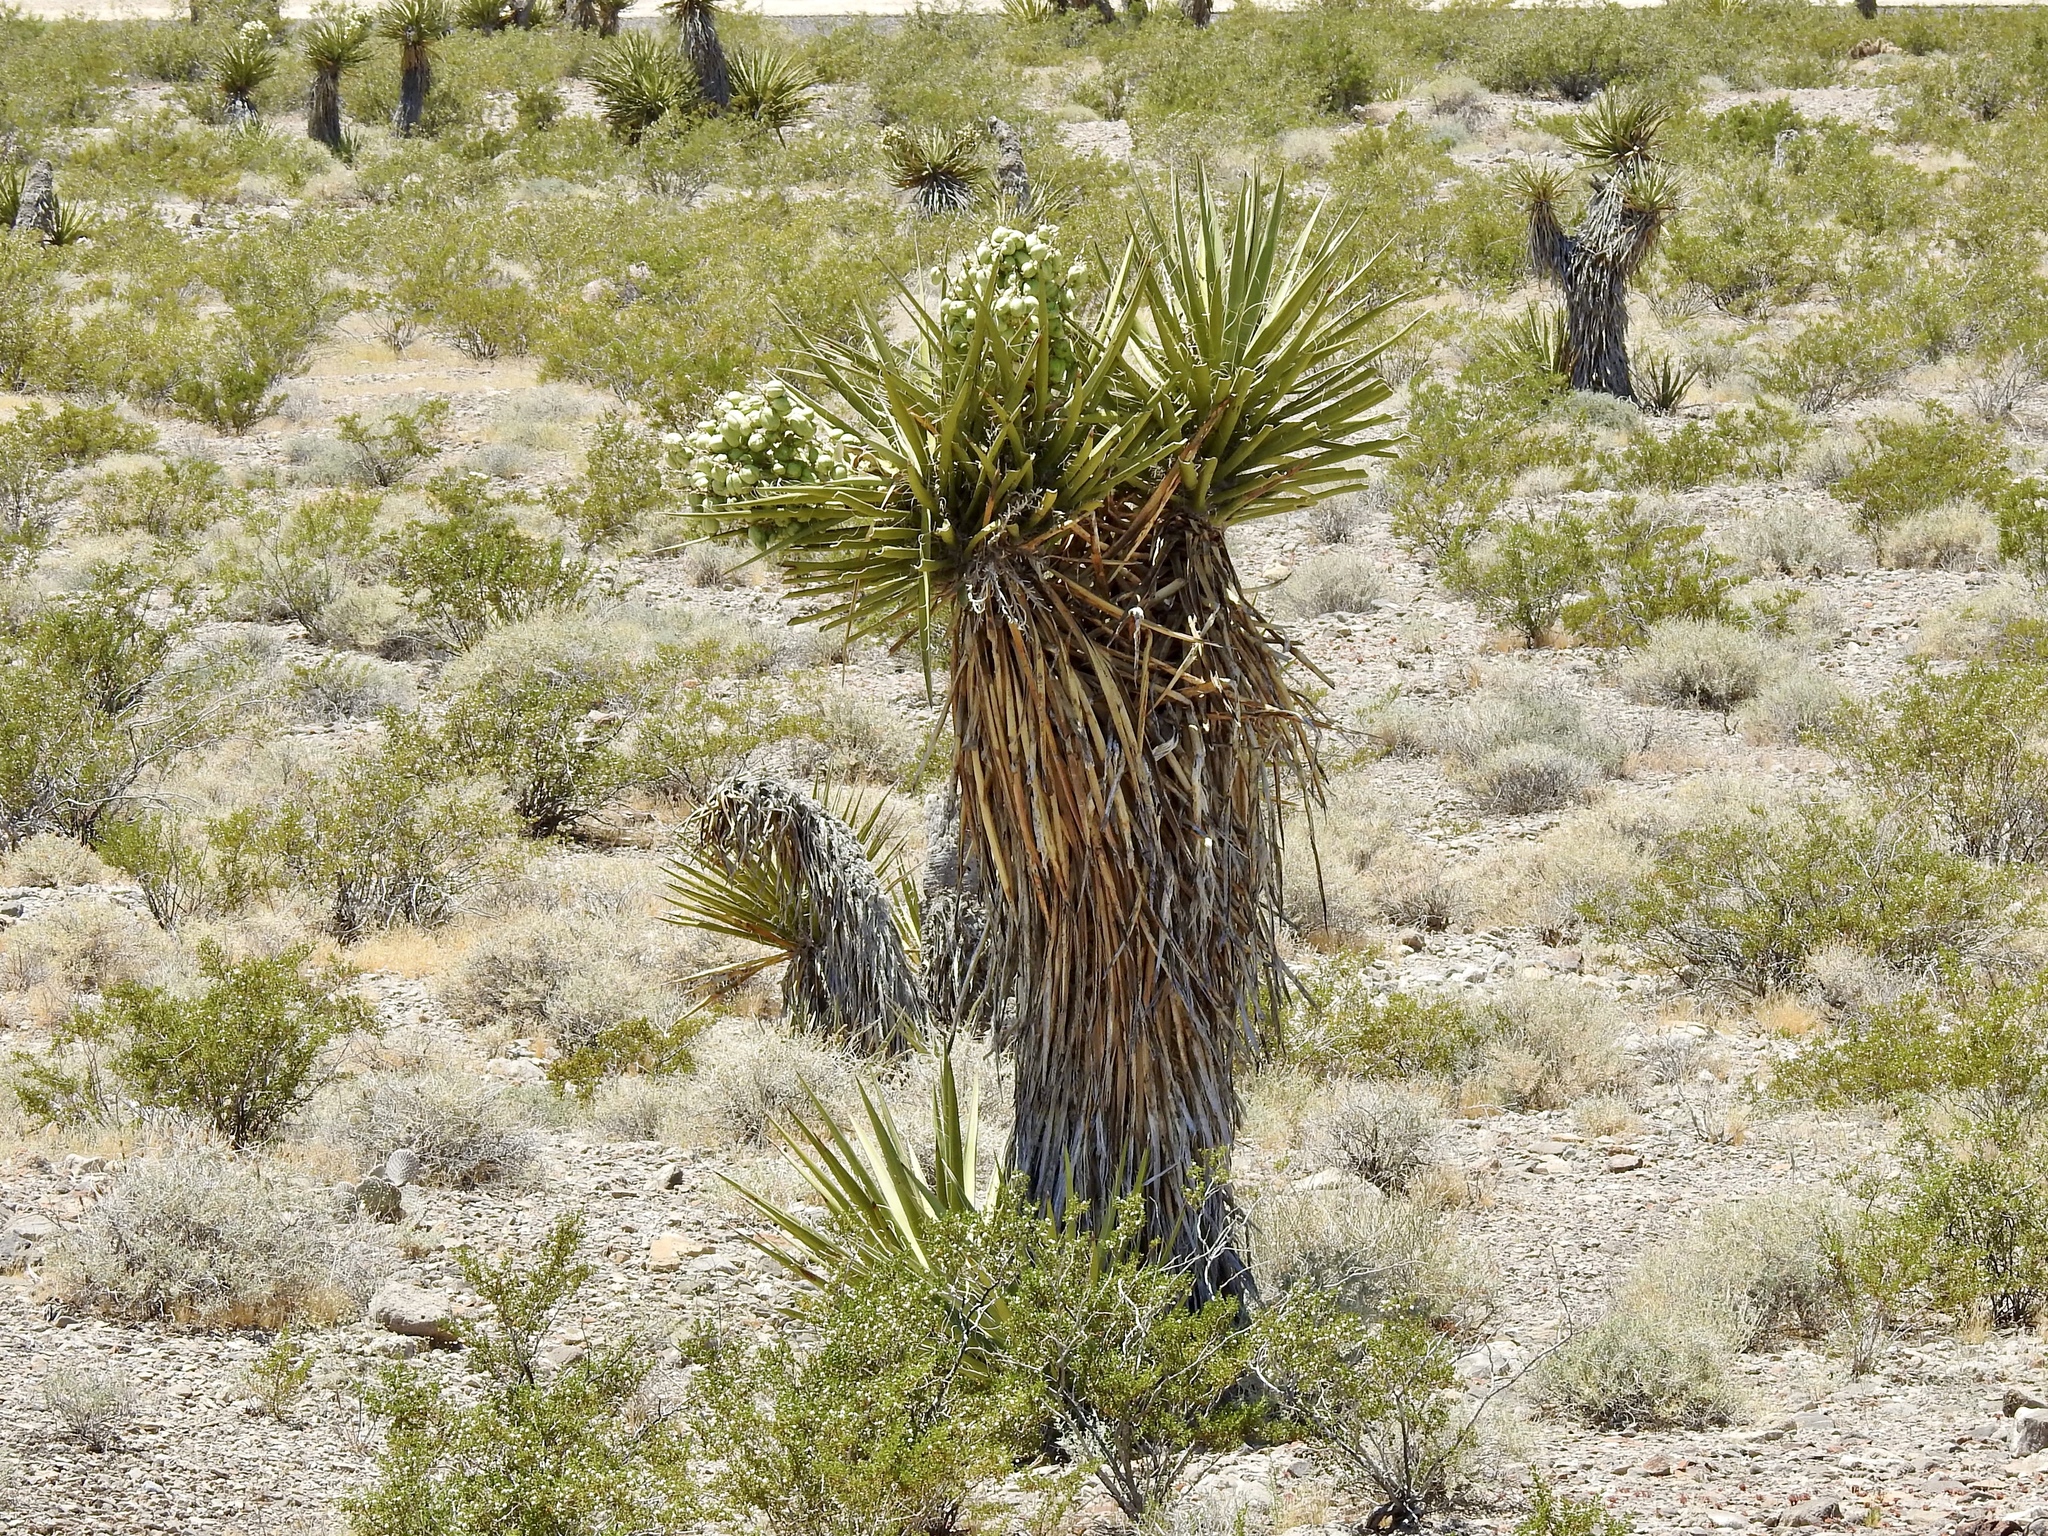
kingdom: Plantae
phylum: Tracheophyta
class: Liliopsida
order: Asparagales
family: Asparagaceae
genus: Yucca
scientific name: Yucca schidigera
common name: Mojave yucca
